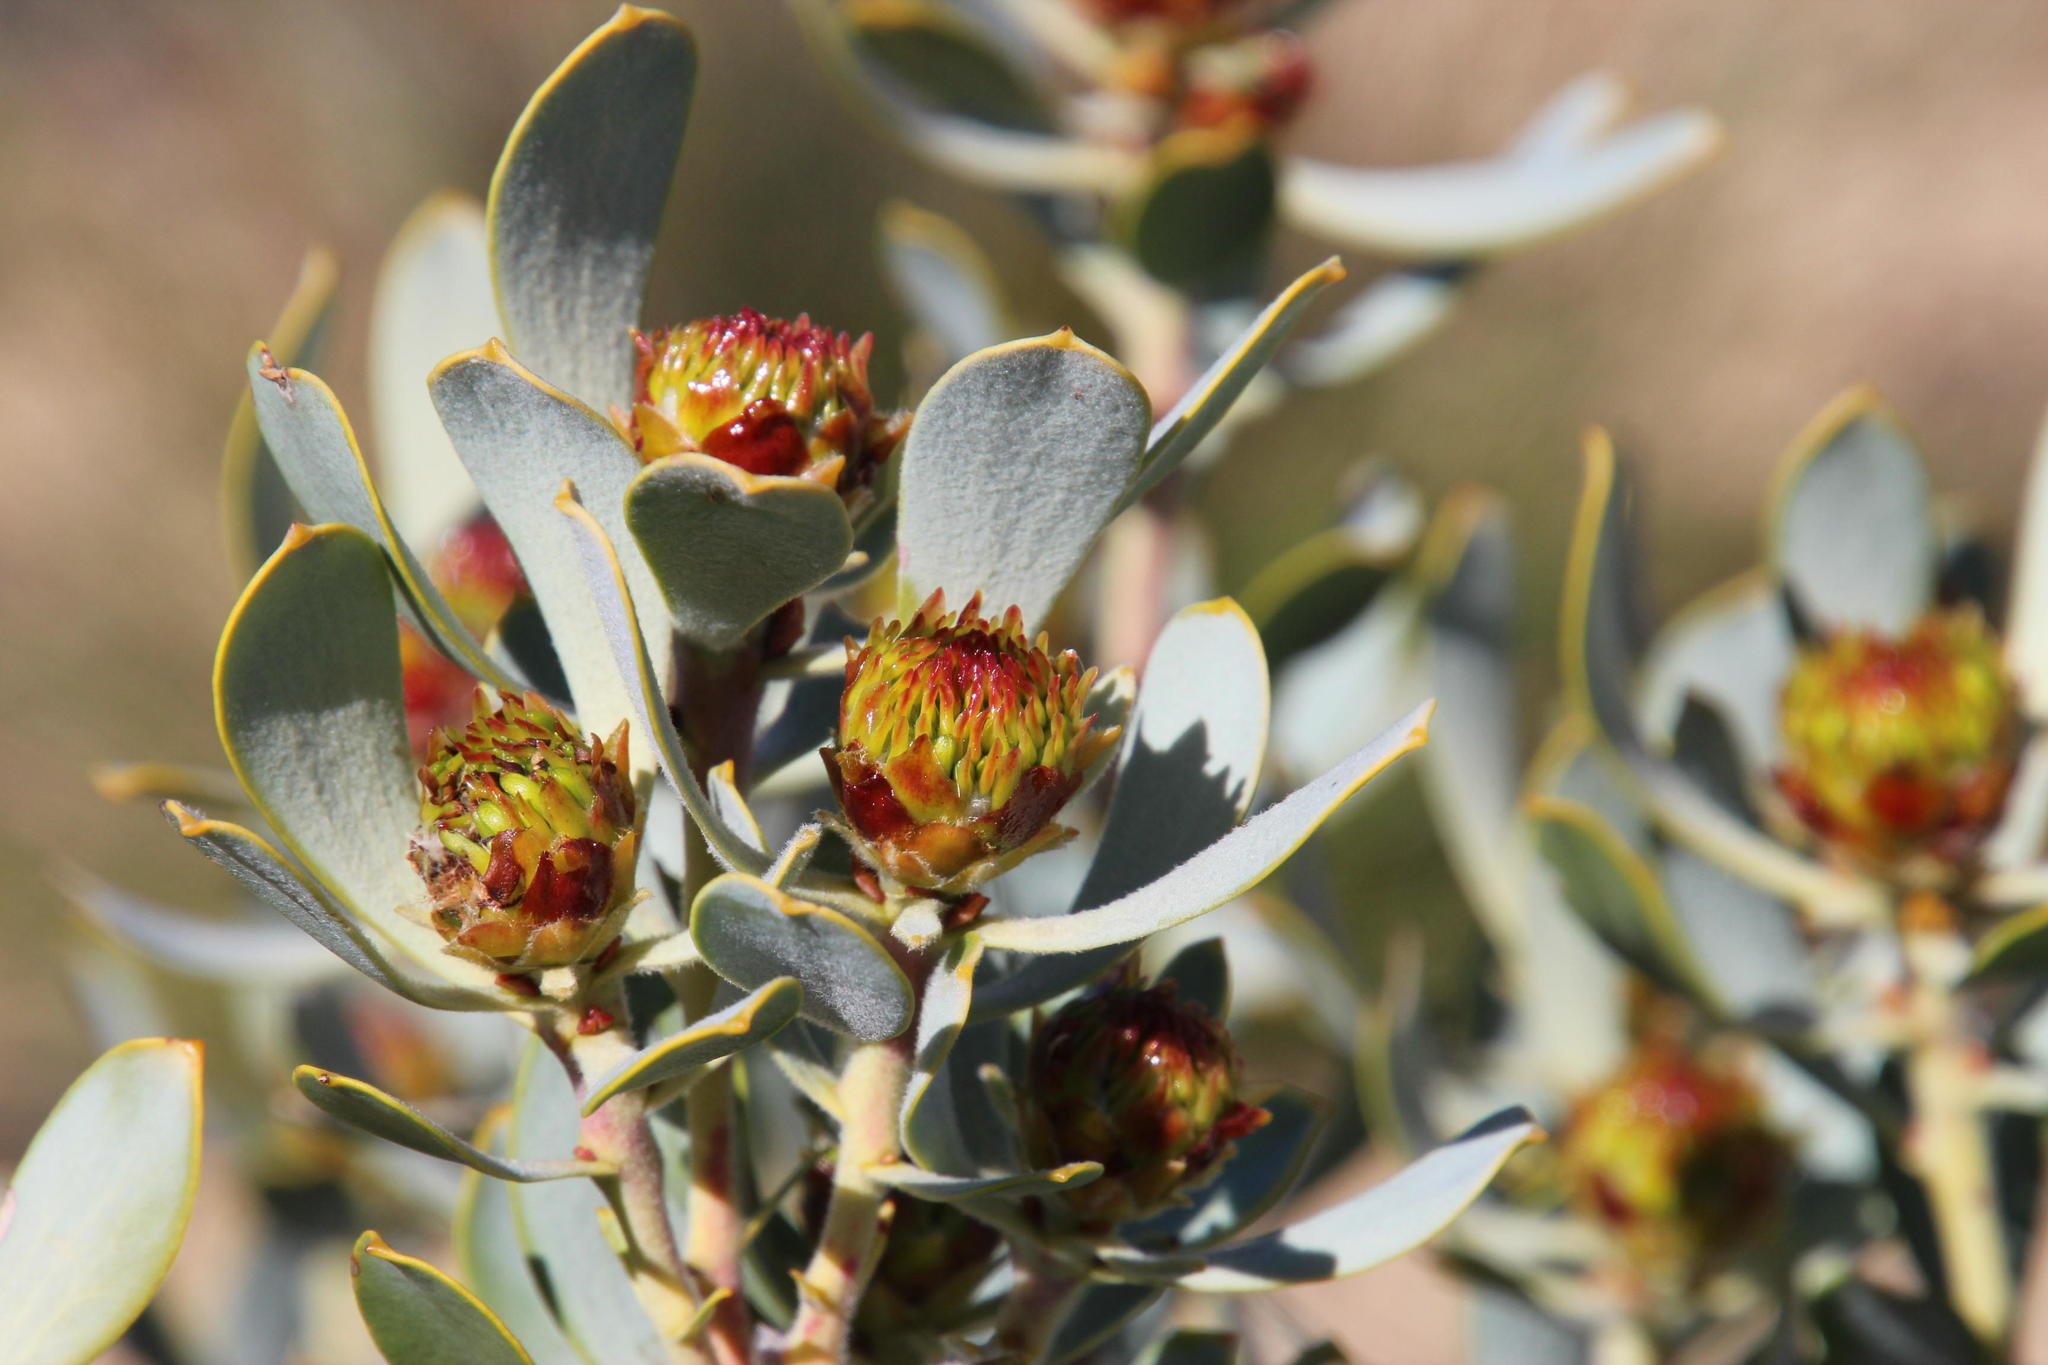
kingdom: Plantae
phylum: Tracheophyta
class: Magnoliopsida
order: Proteales
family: Proteaceae
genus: Leucadendron
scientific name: Leucadendron loranthifolium
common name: Green-flower sunbush
